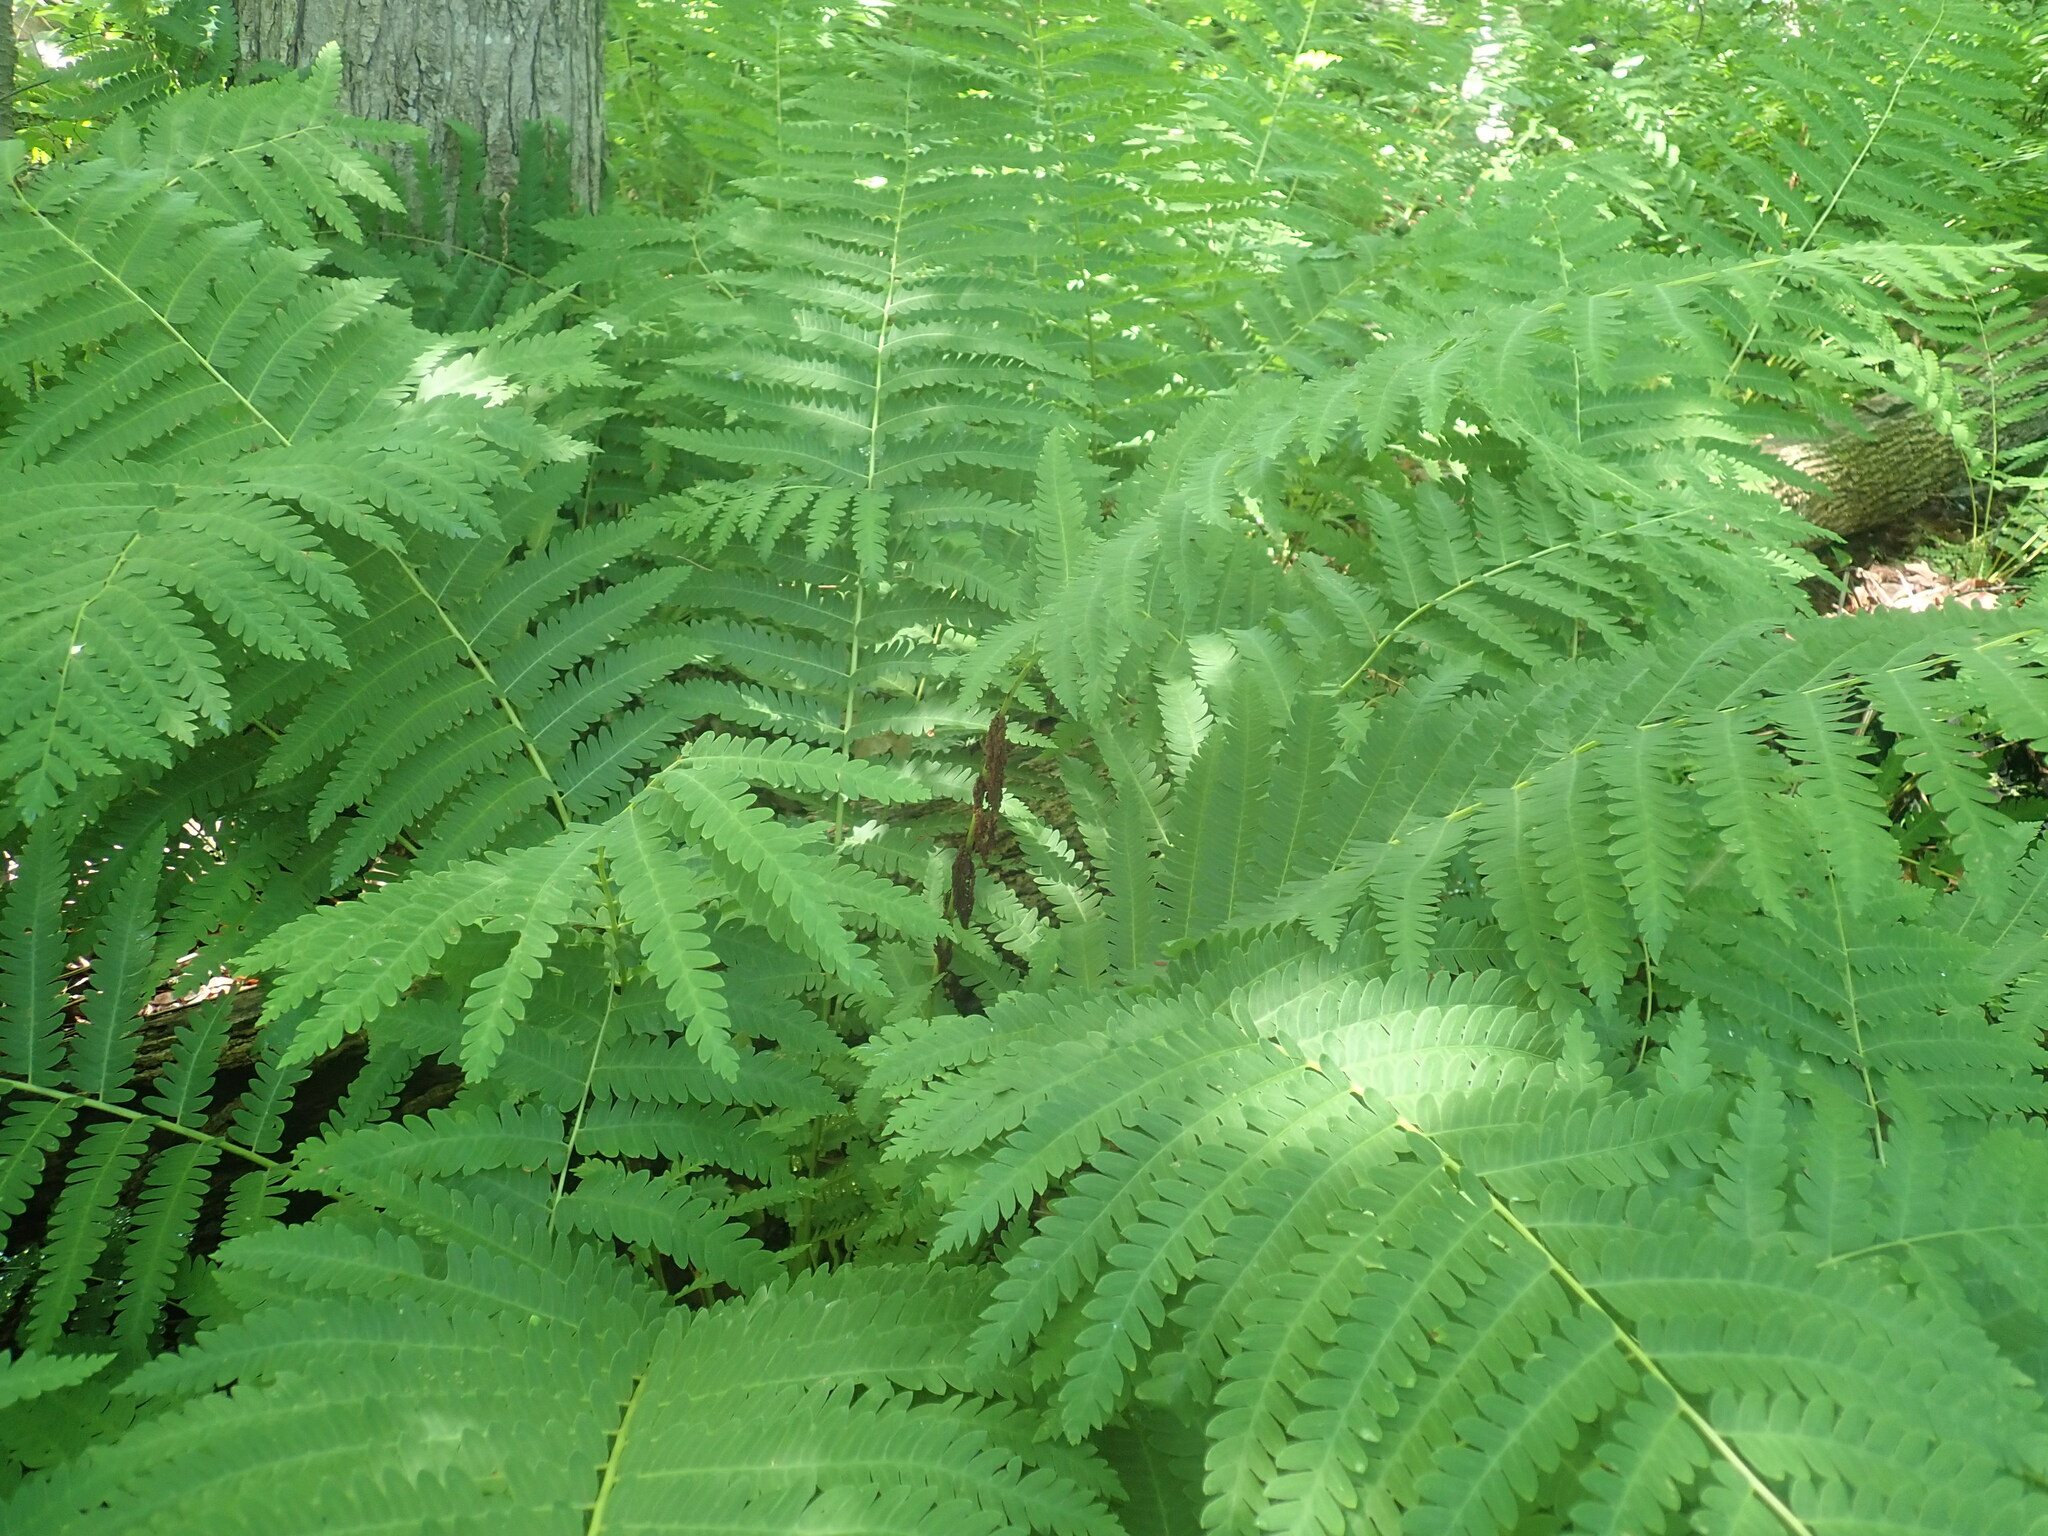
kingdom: Plantae
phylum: Tracheophyta
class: Polypodiopsida
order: Osmundales
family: Osmundaceae
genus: Claytosmunda
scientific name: Claytosmunda claytoniana
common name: Clayton's fern
